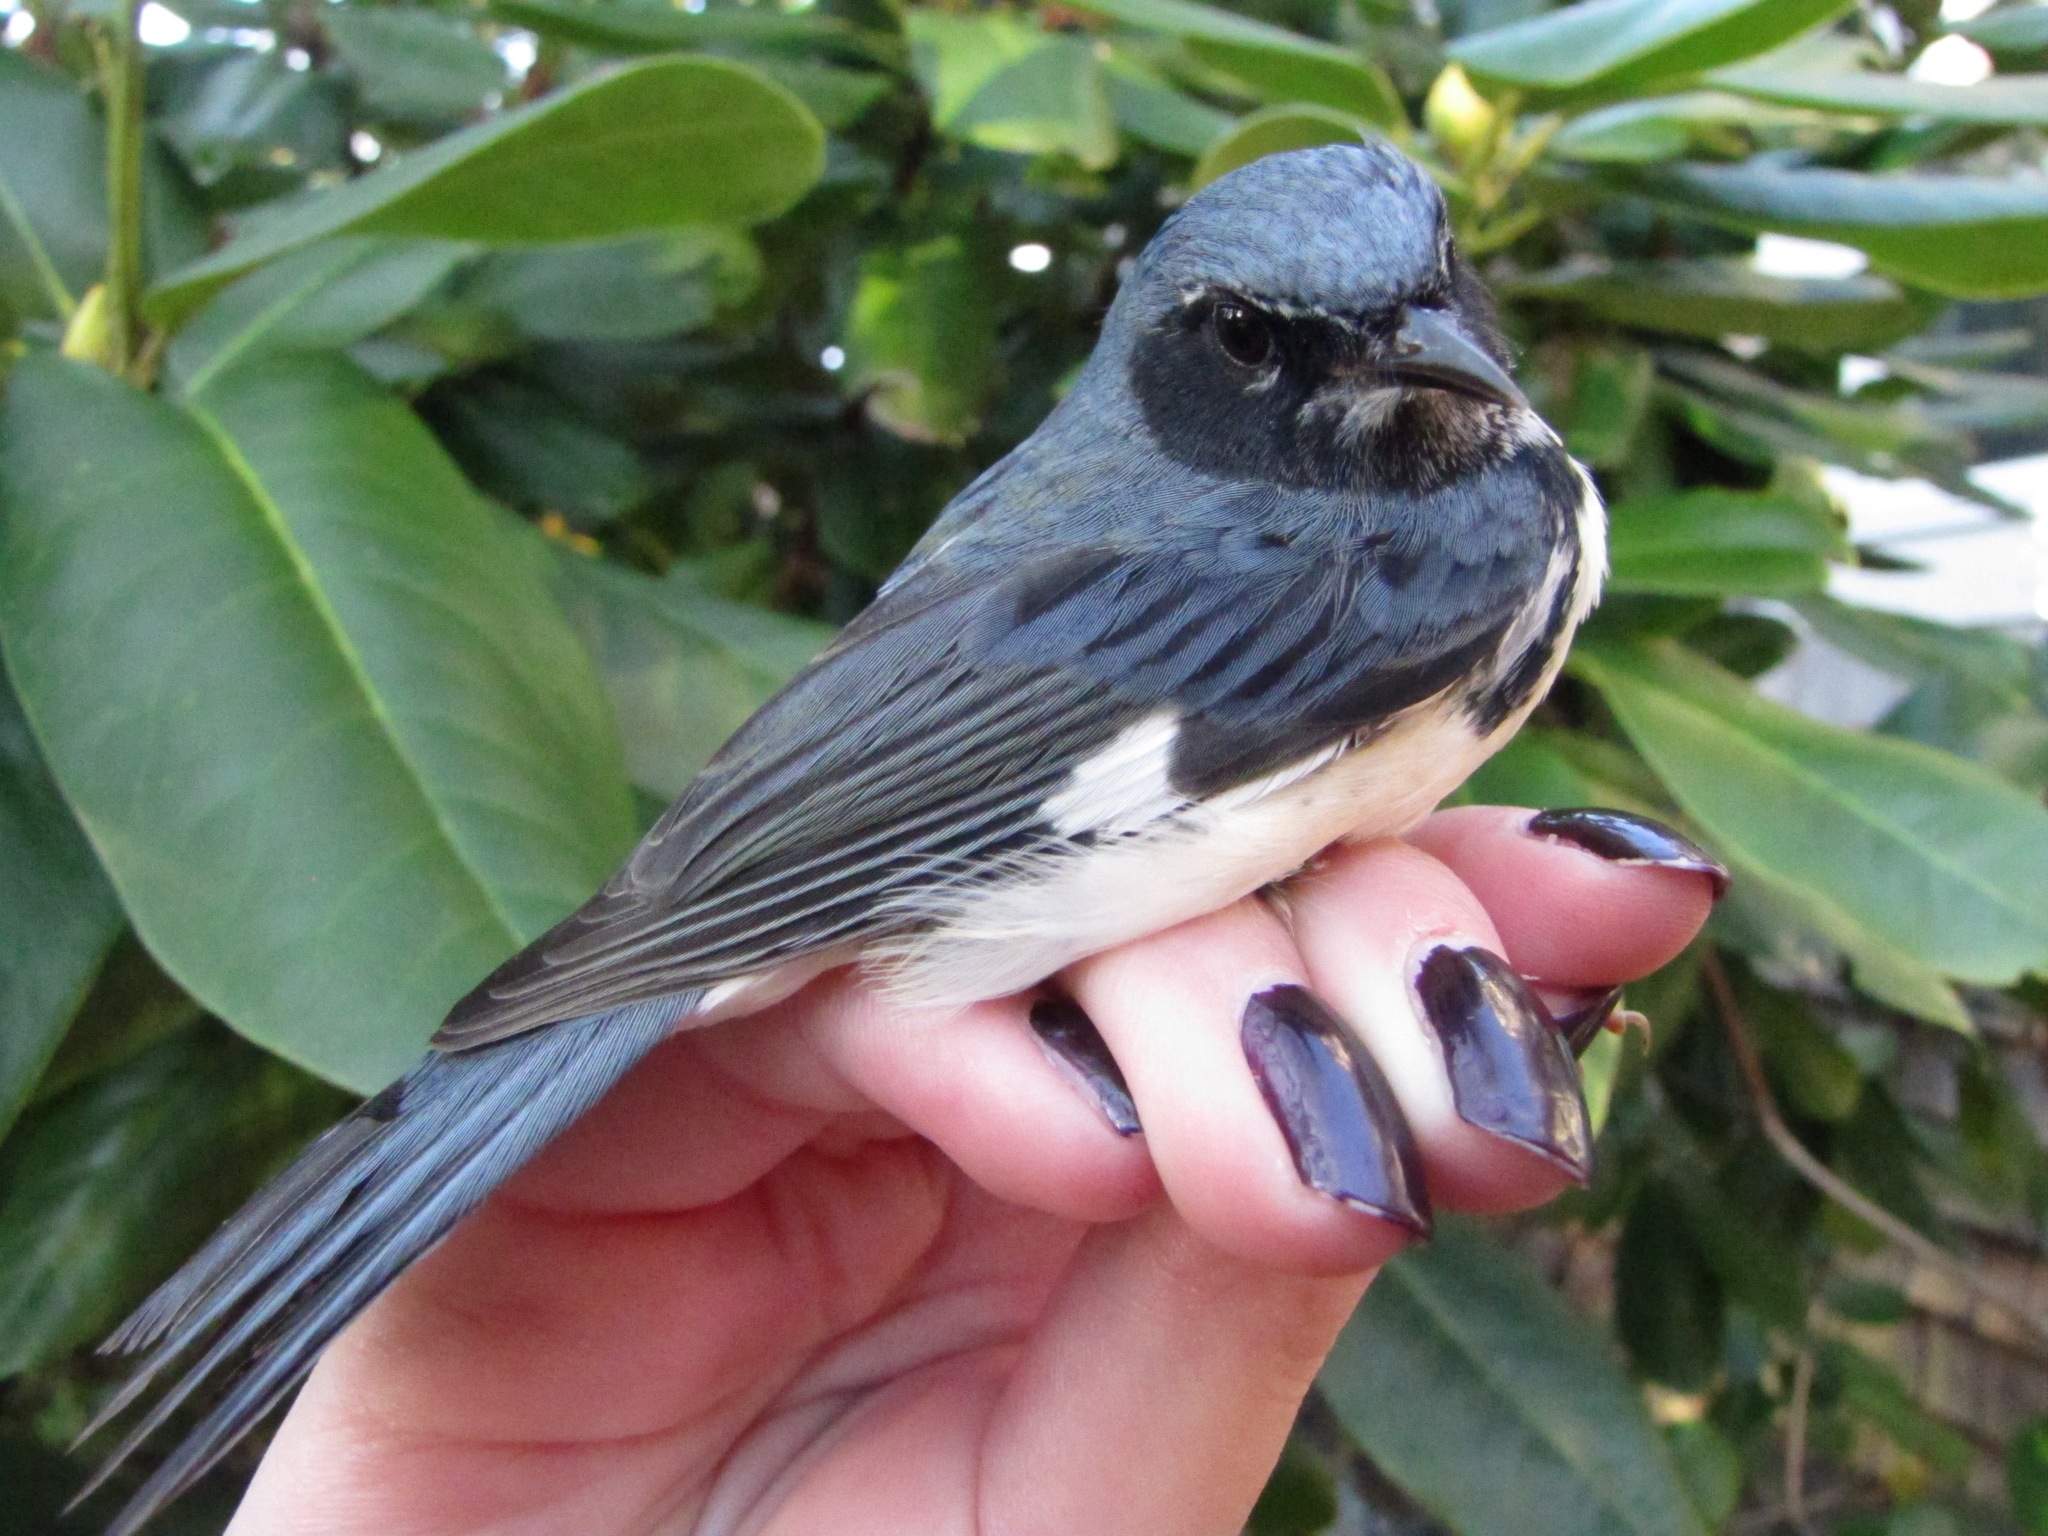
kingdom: Animalia
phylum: Chordata
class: Aves
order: Passeriformes
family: Parulidae
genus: Setophaga
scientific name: Setophaga caerulescens
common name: Black-throated blue warbler
